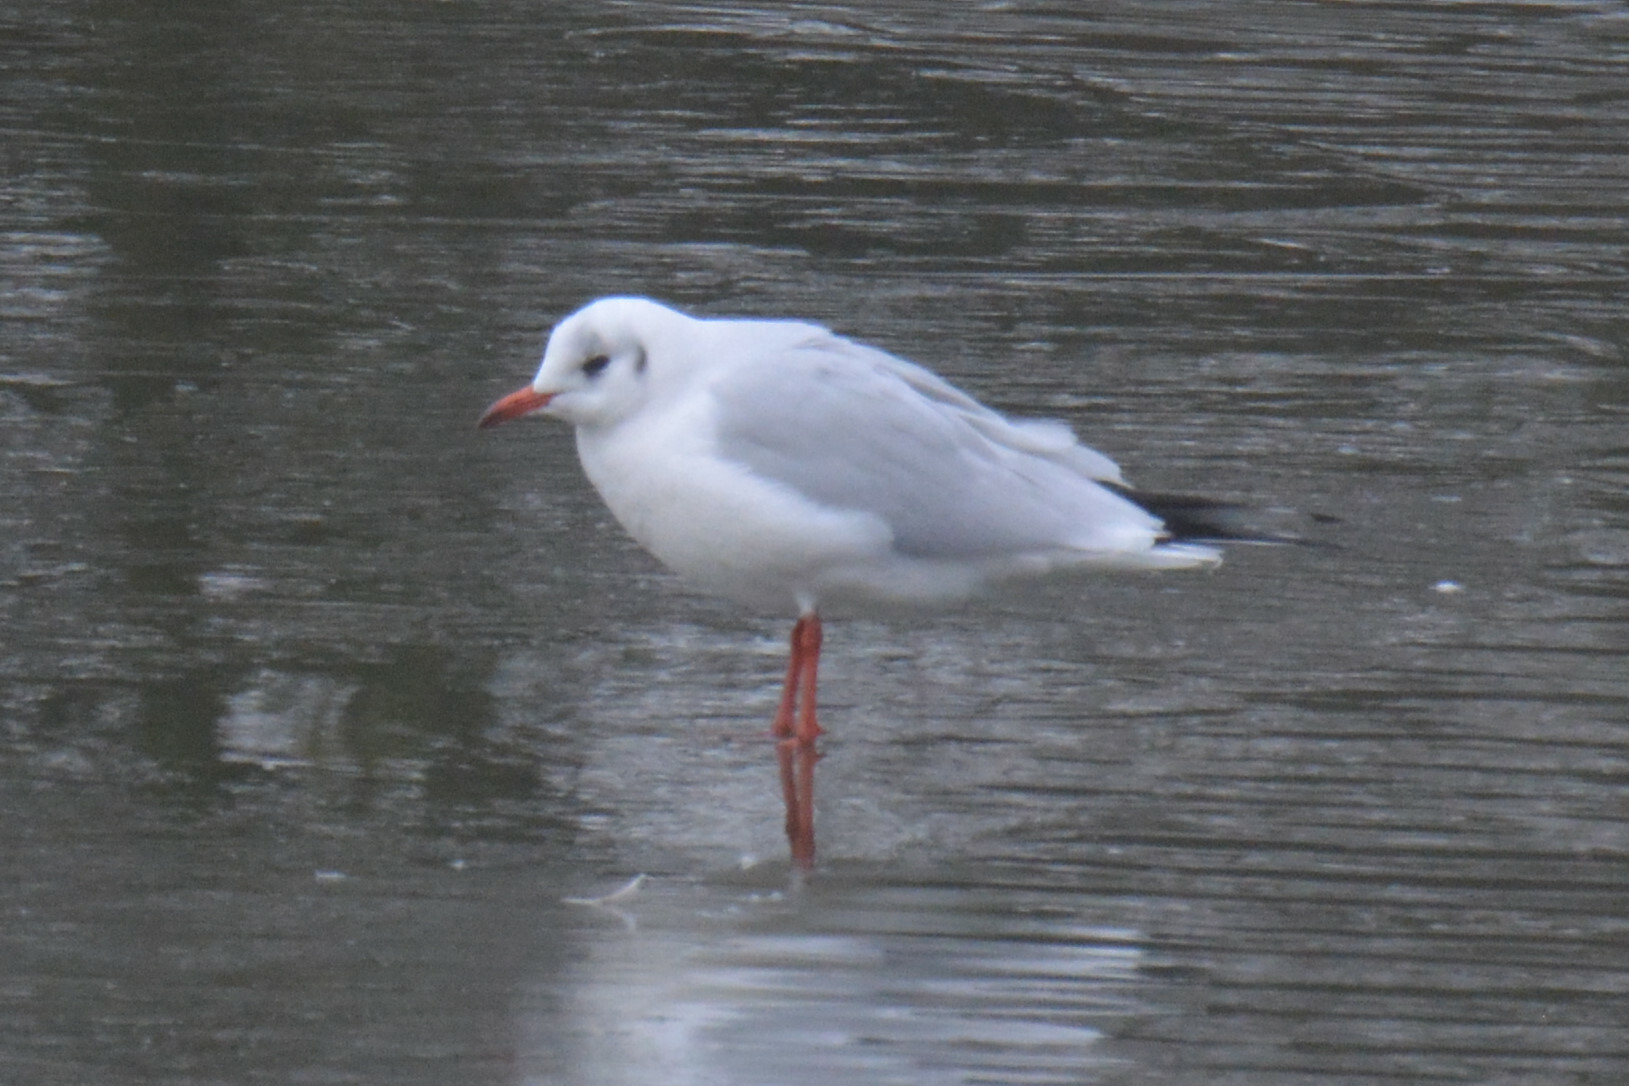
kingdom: Animalia
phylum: Chordata
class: Aves
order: Charadriiformes
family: Laridae
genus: Chroicocephalus
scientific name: Chroicocephalus ridibundus
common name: Black-headed gull
